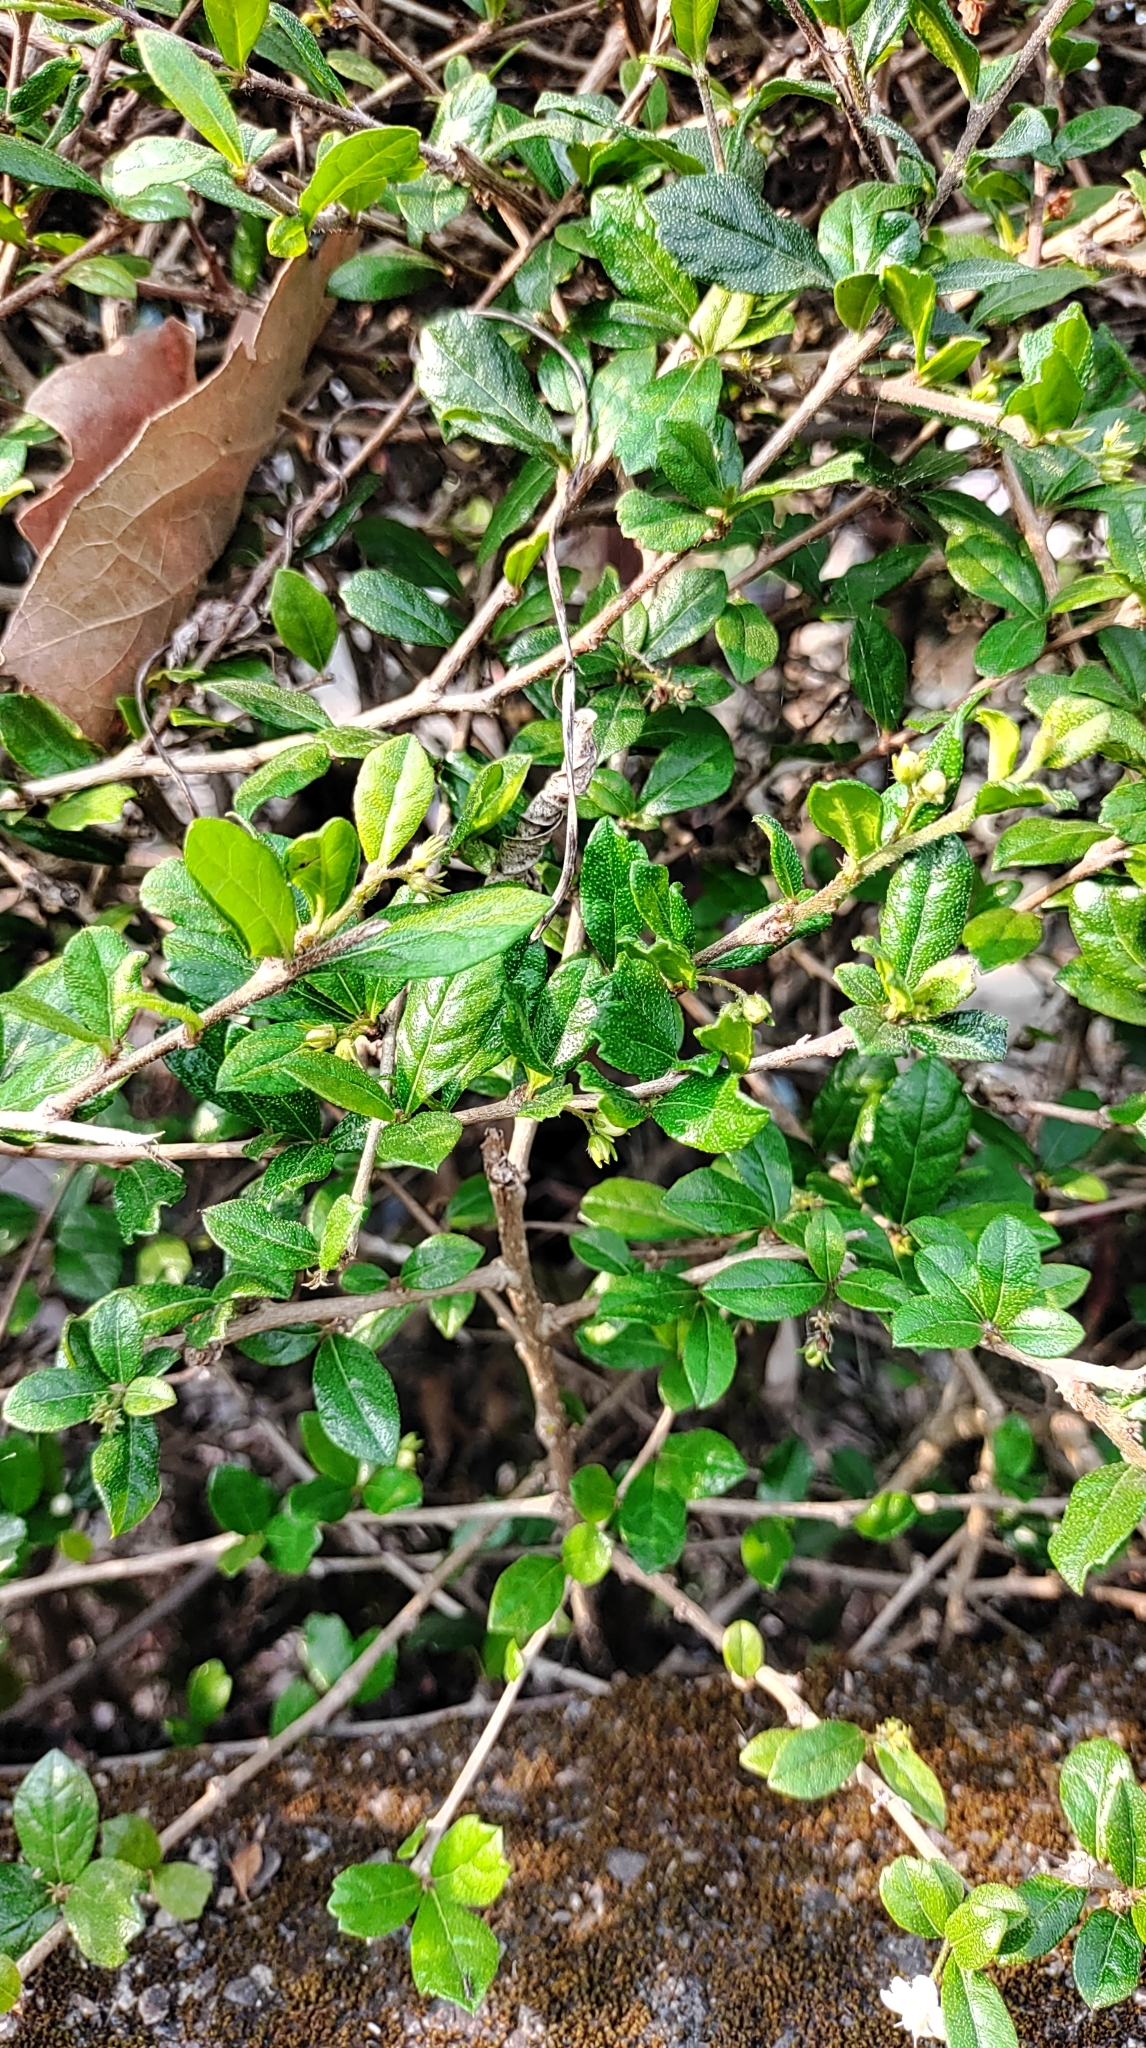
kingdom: Plantae
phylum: Tracheophyta
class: Magnoliopsida
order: Boraginales
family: Ehretiaceae
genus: Ehretia
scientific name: Ehretia microphylla
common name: Fukien-tea
